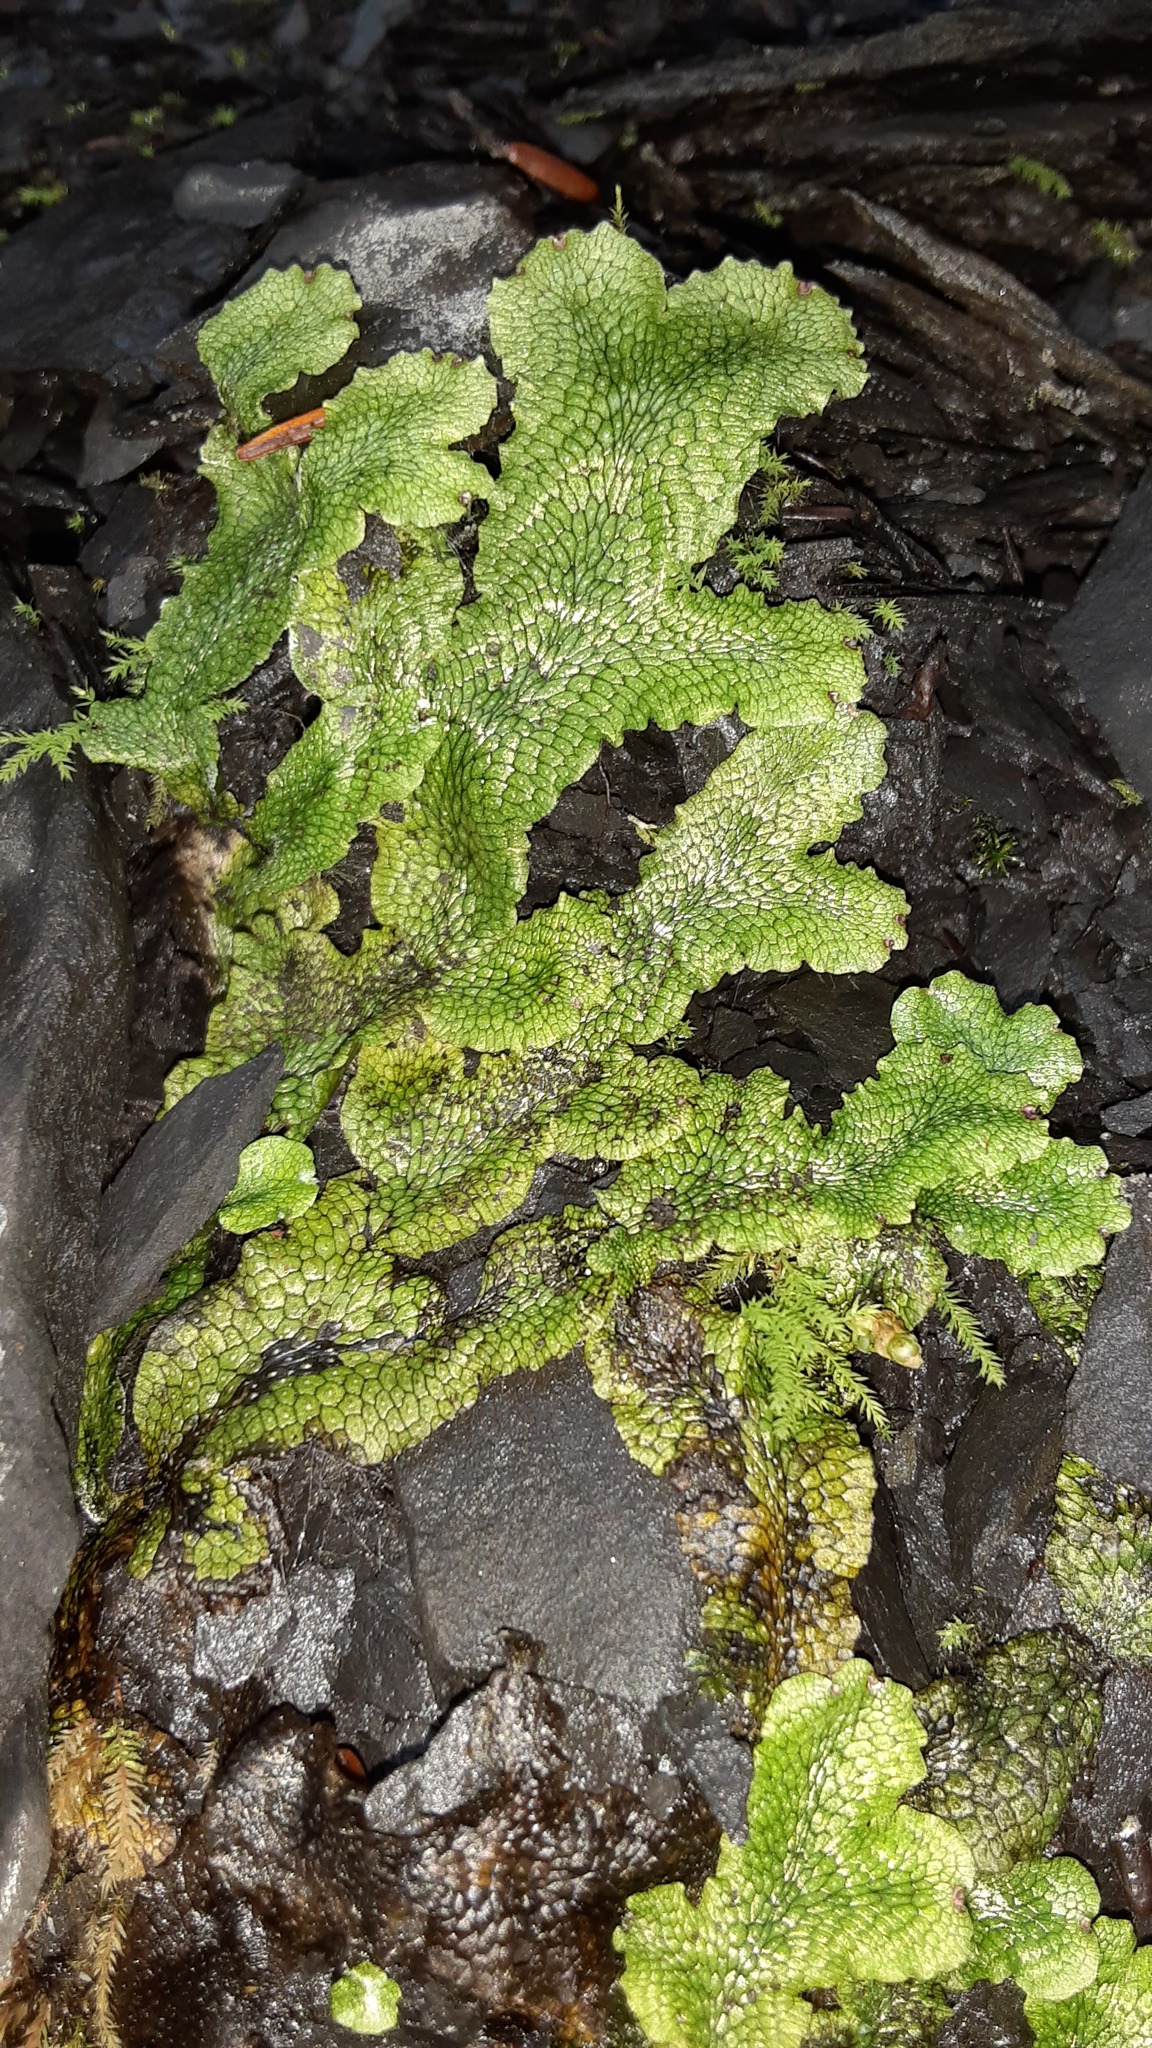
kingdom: Plantae
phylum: Marchantiophyta
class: Marchantiopsida
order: Marchantiales
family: Conocephalaceae
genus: Conocephalum
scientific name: Conocephalum salebrosum
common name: Cat-tongue liverwort
